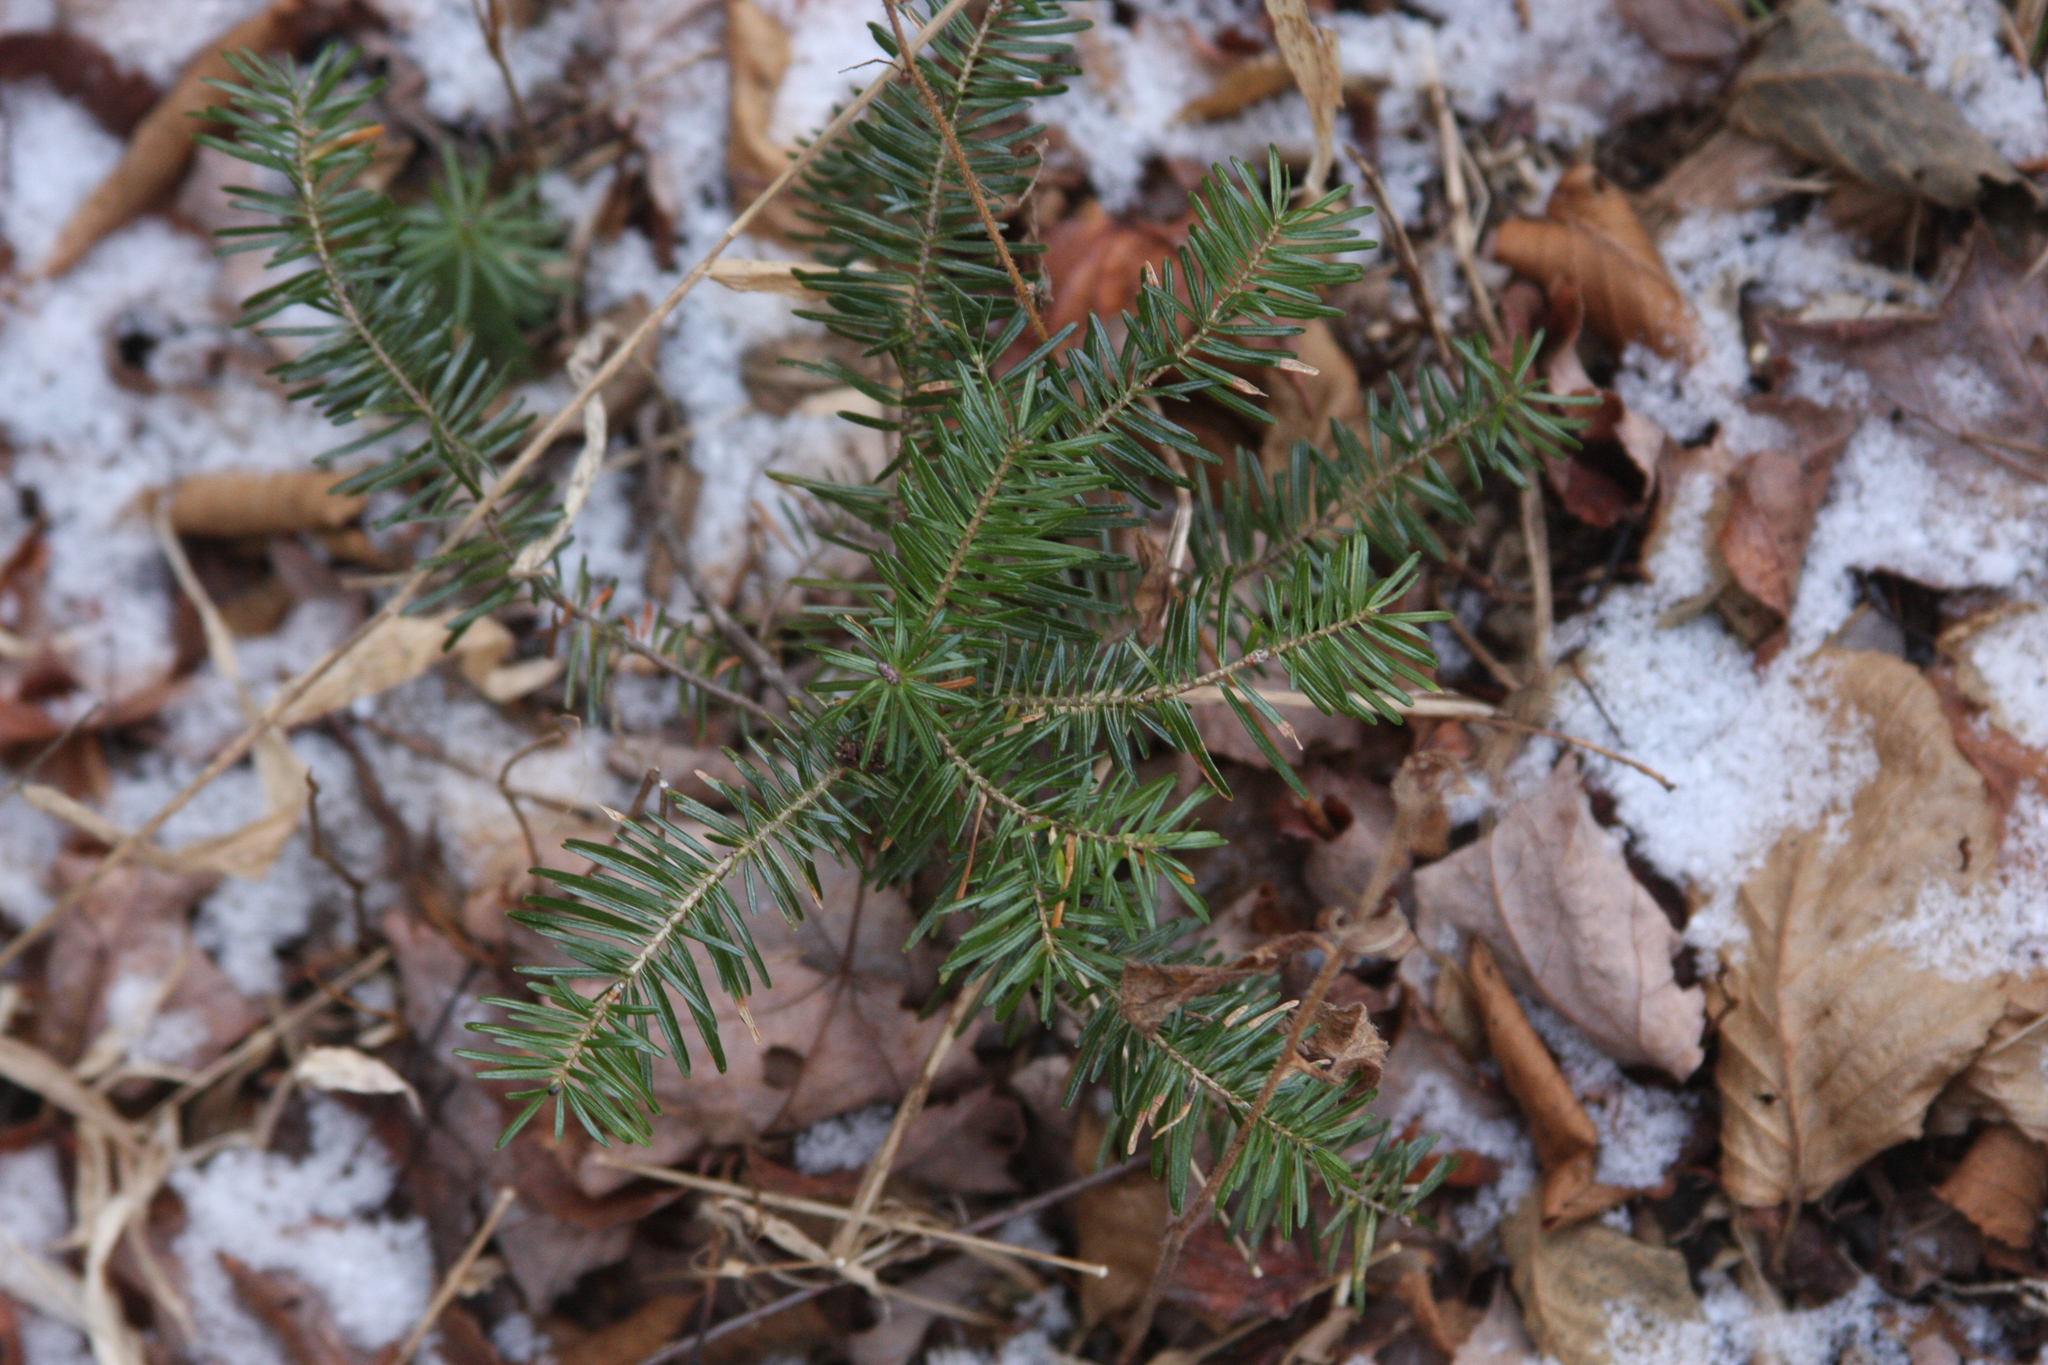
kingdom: Plantae
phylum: Tracheophyta
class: Pinopsida
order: Pinales
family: Pinaceae
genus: Abies
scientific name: Abies balsamea
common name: Balsam fir
